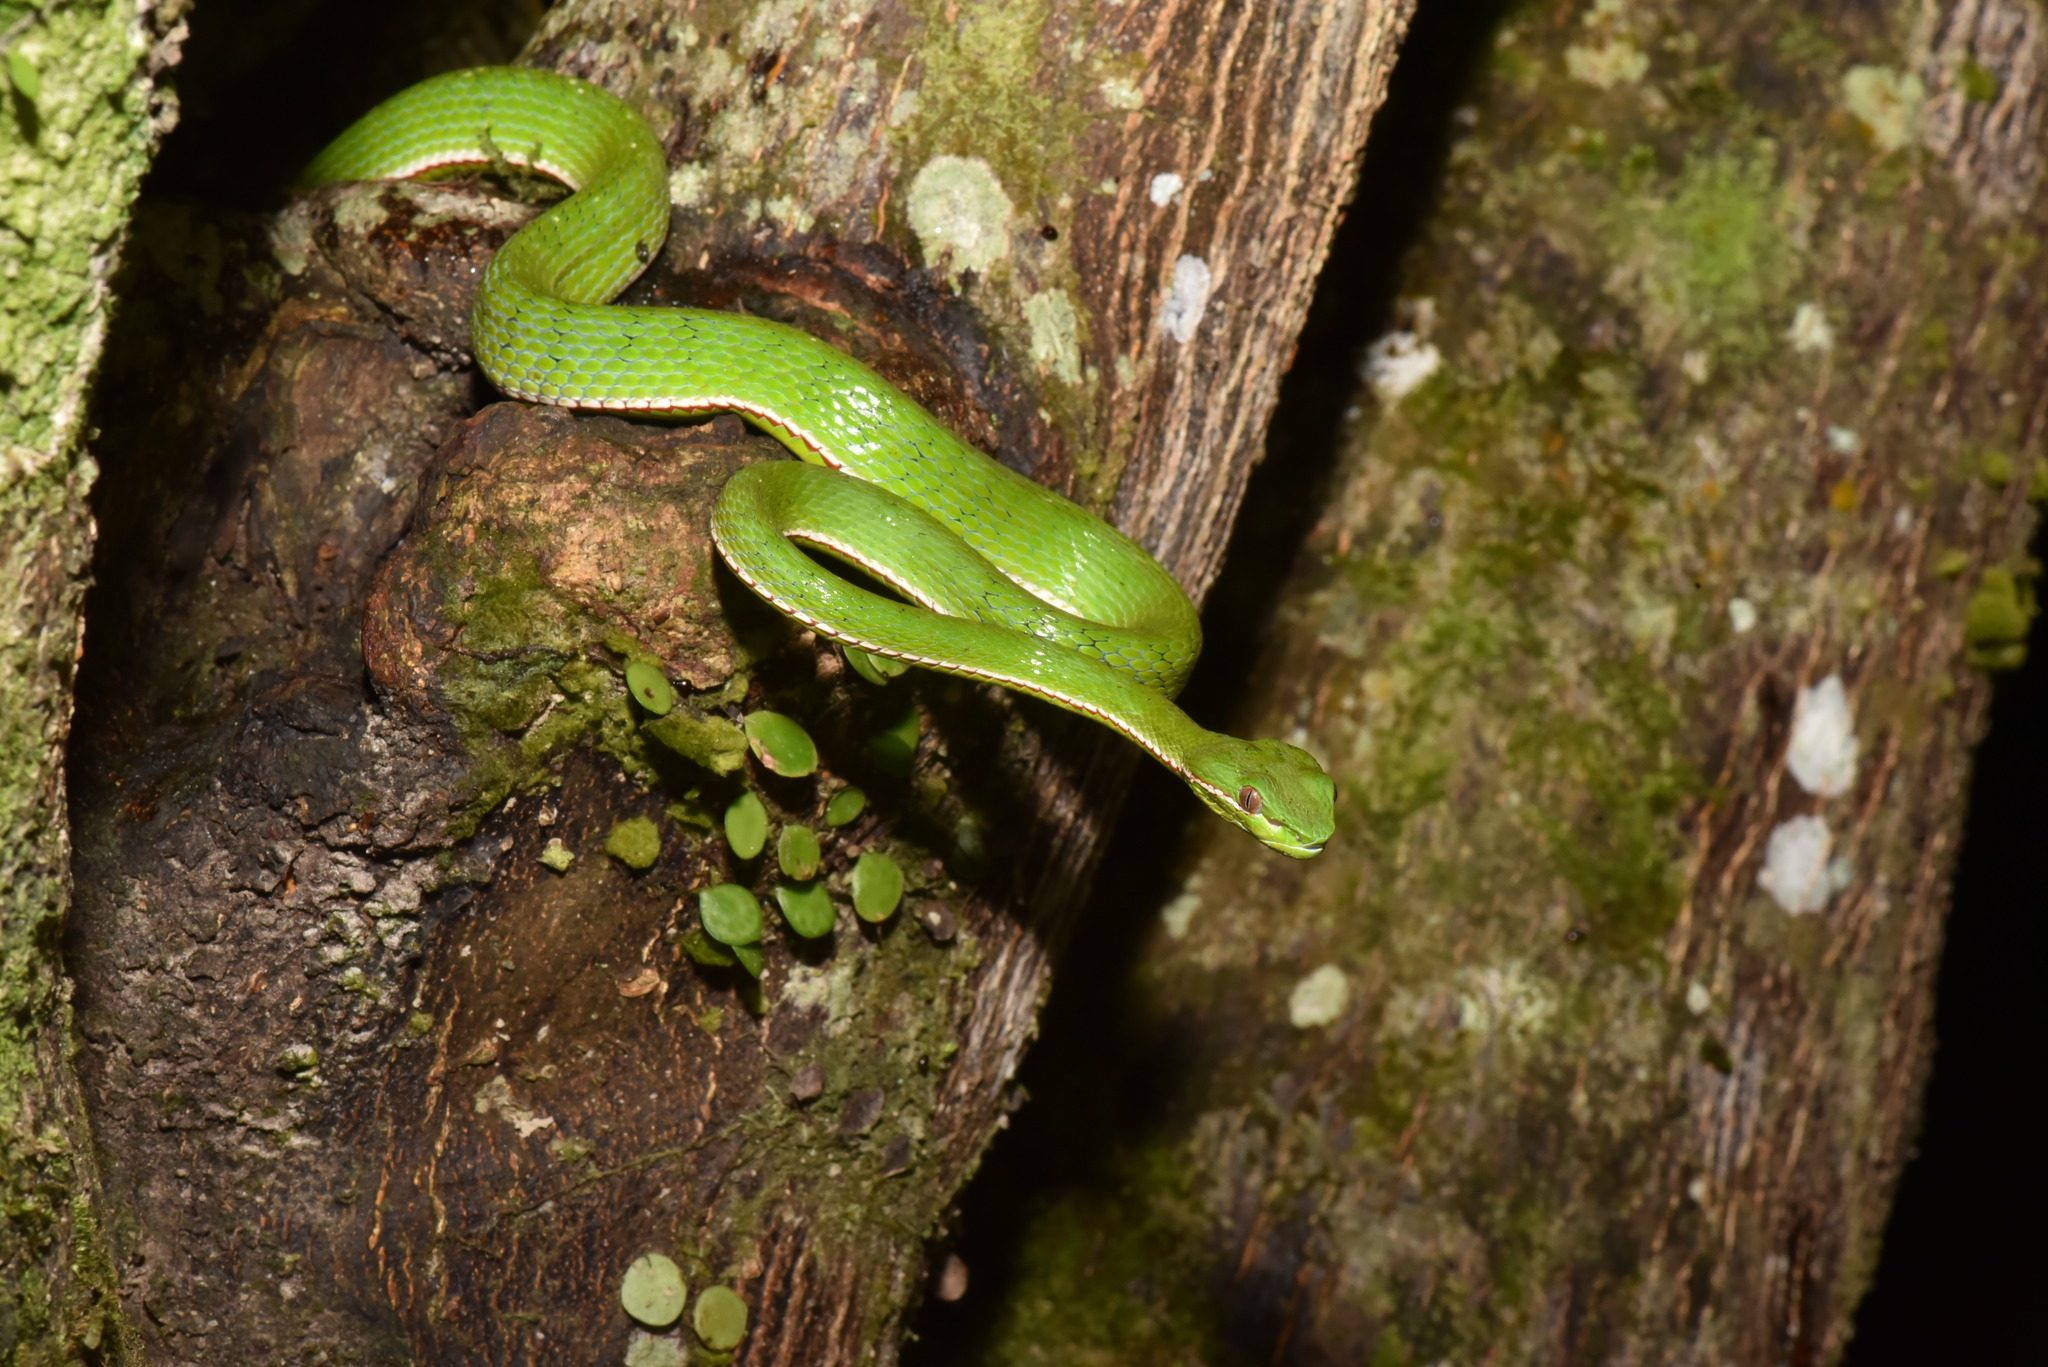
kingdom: Animalia
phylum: Chordata
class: Squamata
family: Viperidae
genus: Trimeresurus
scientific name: Trimeresurus stejnegeri
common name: Chen’s bamboo pit viper
